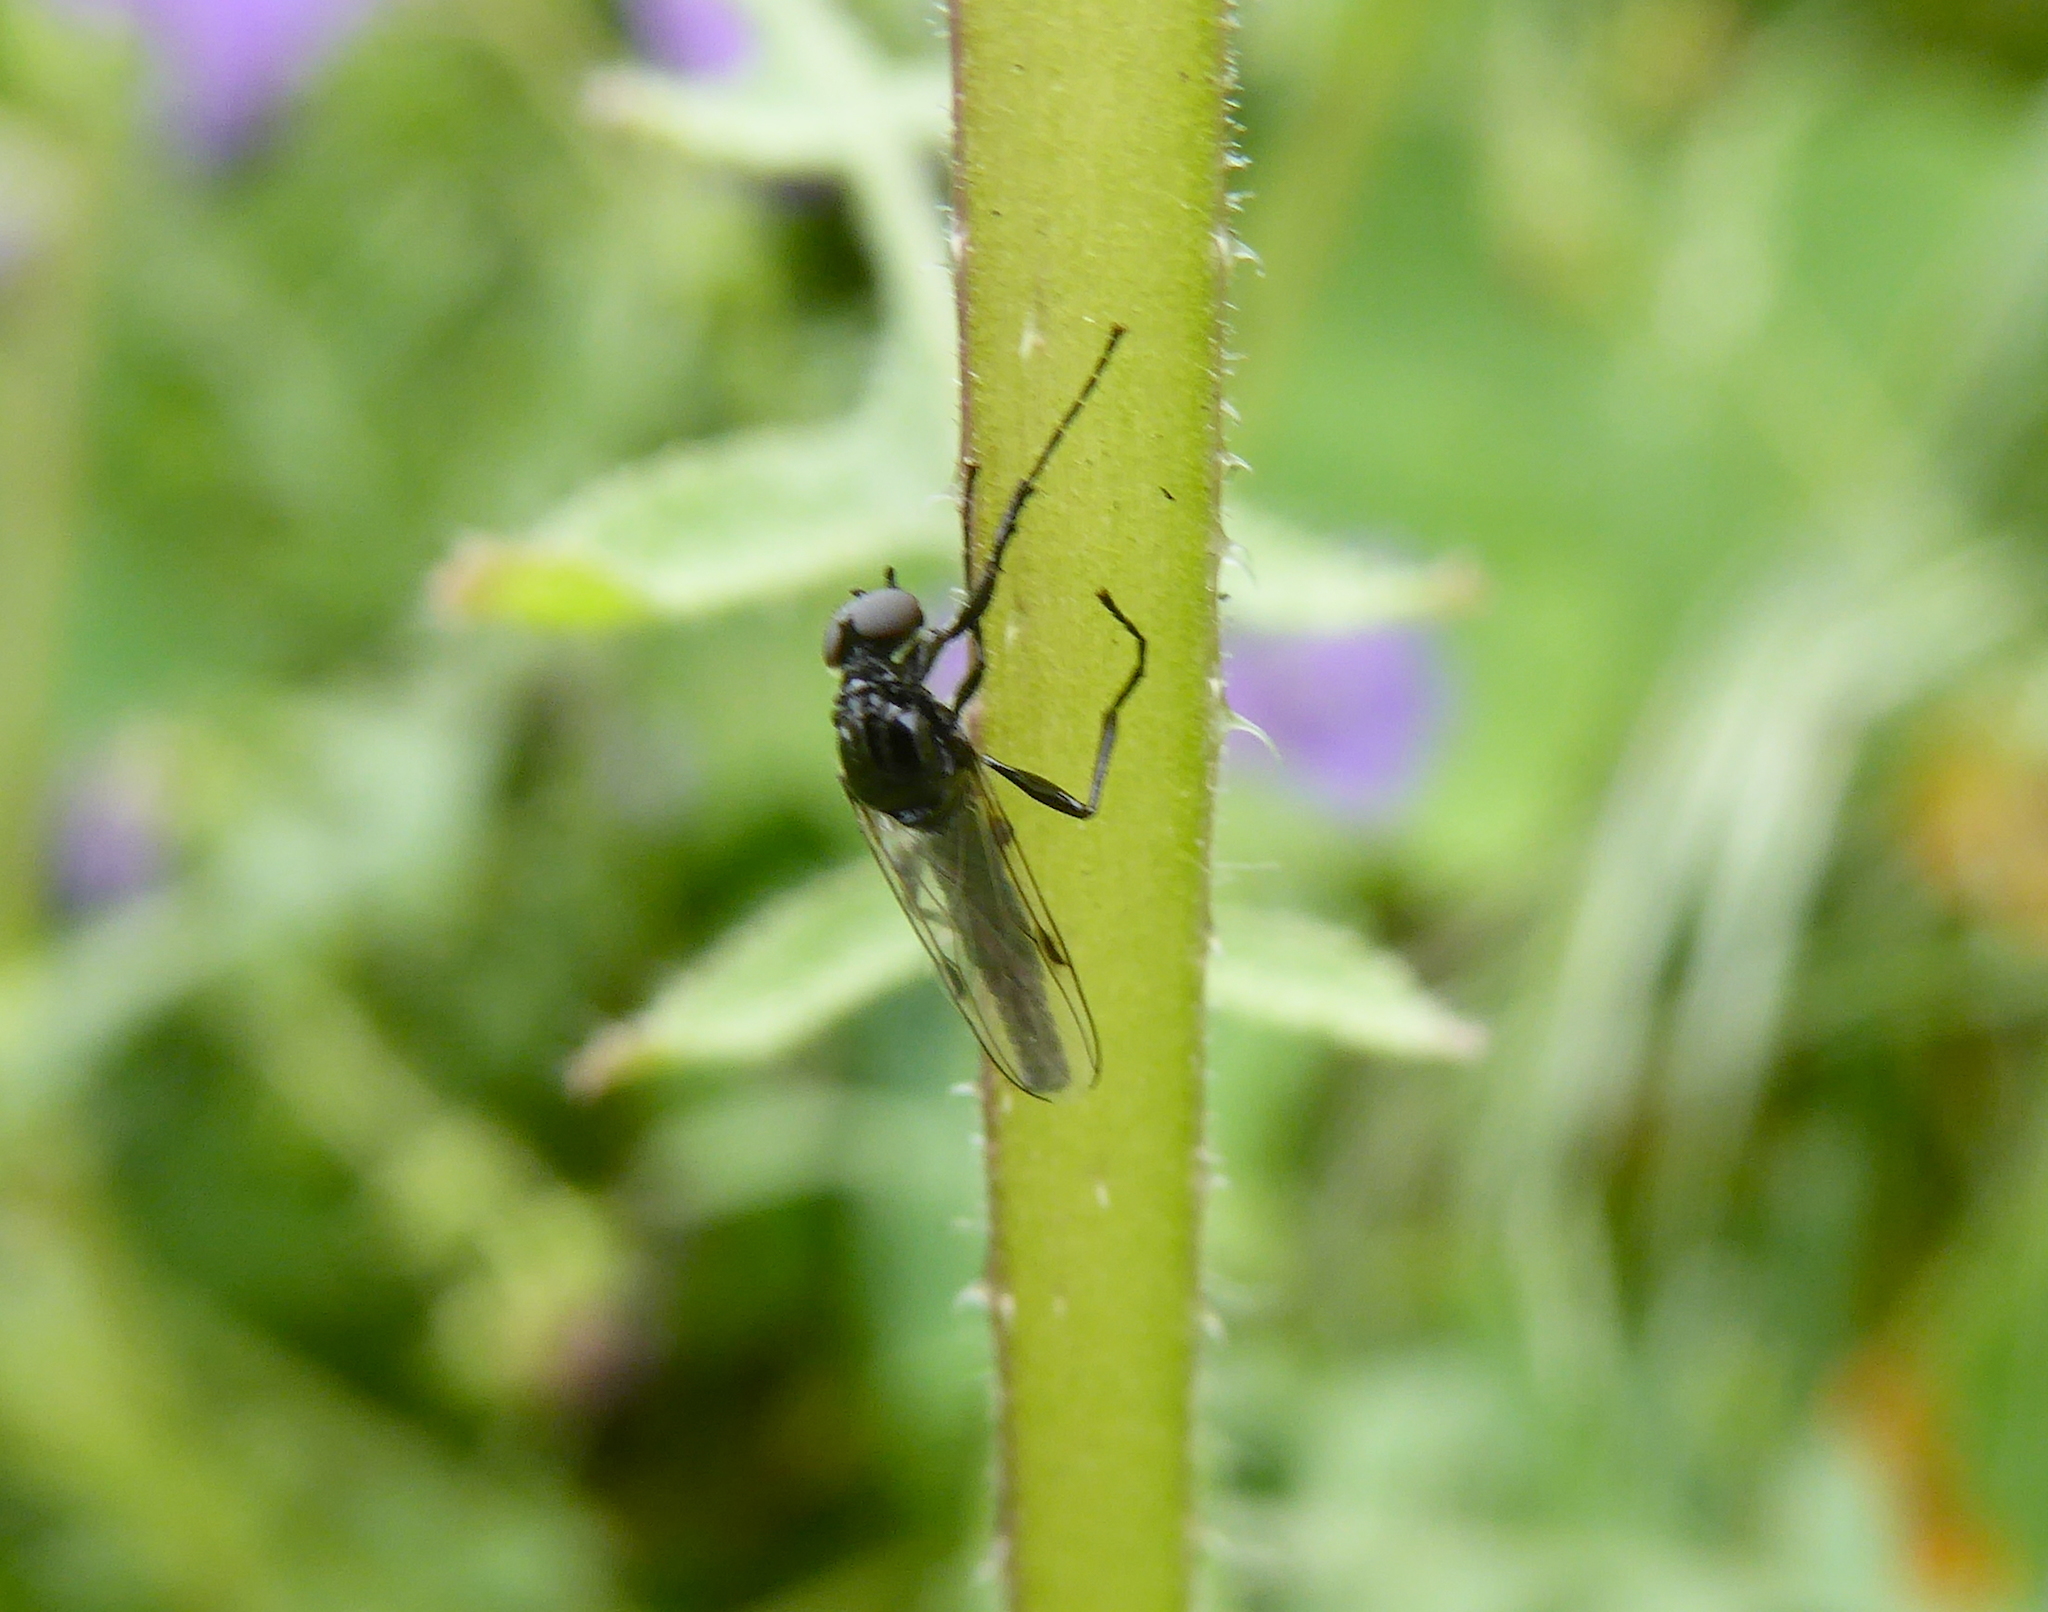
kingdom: Animalia
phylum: Arthropoda
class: Insecta
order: Diptera
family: Bibionidae
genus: Dilophus
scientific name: Dilophus
